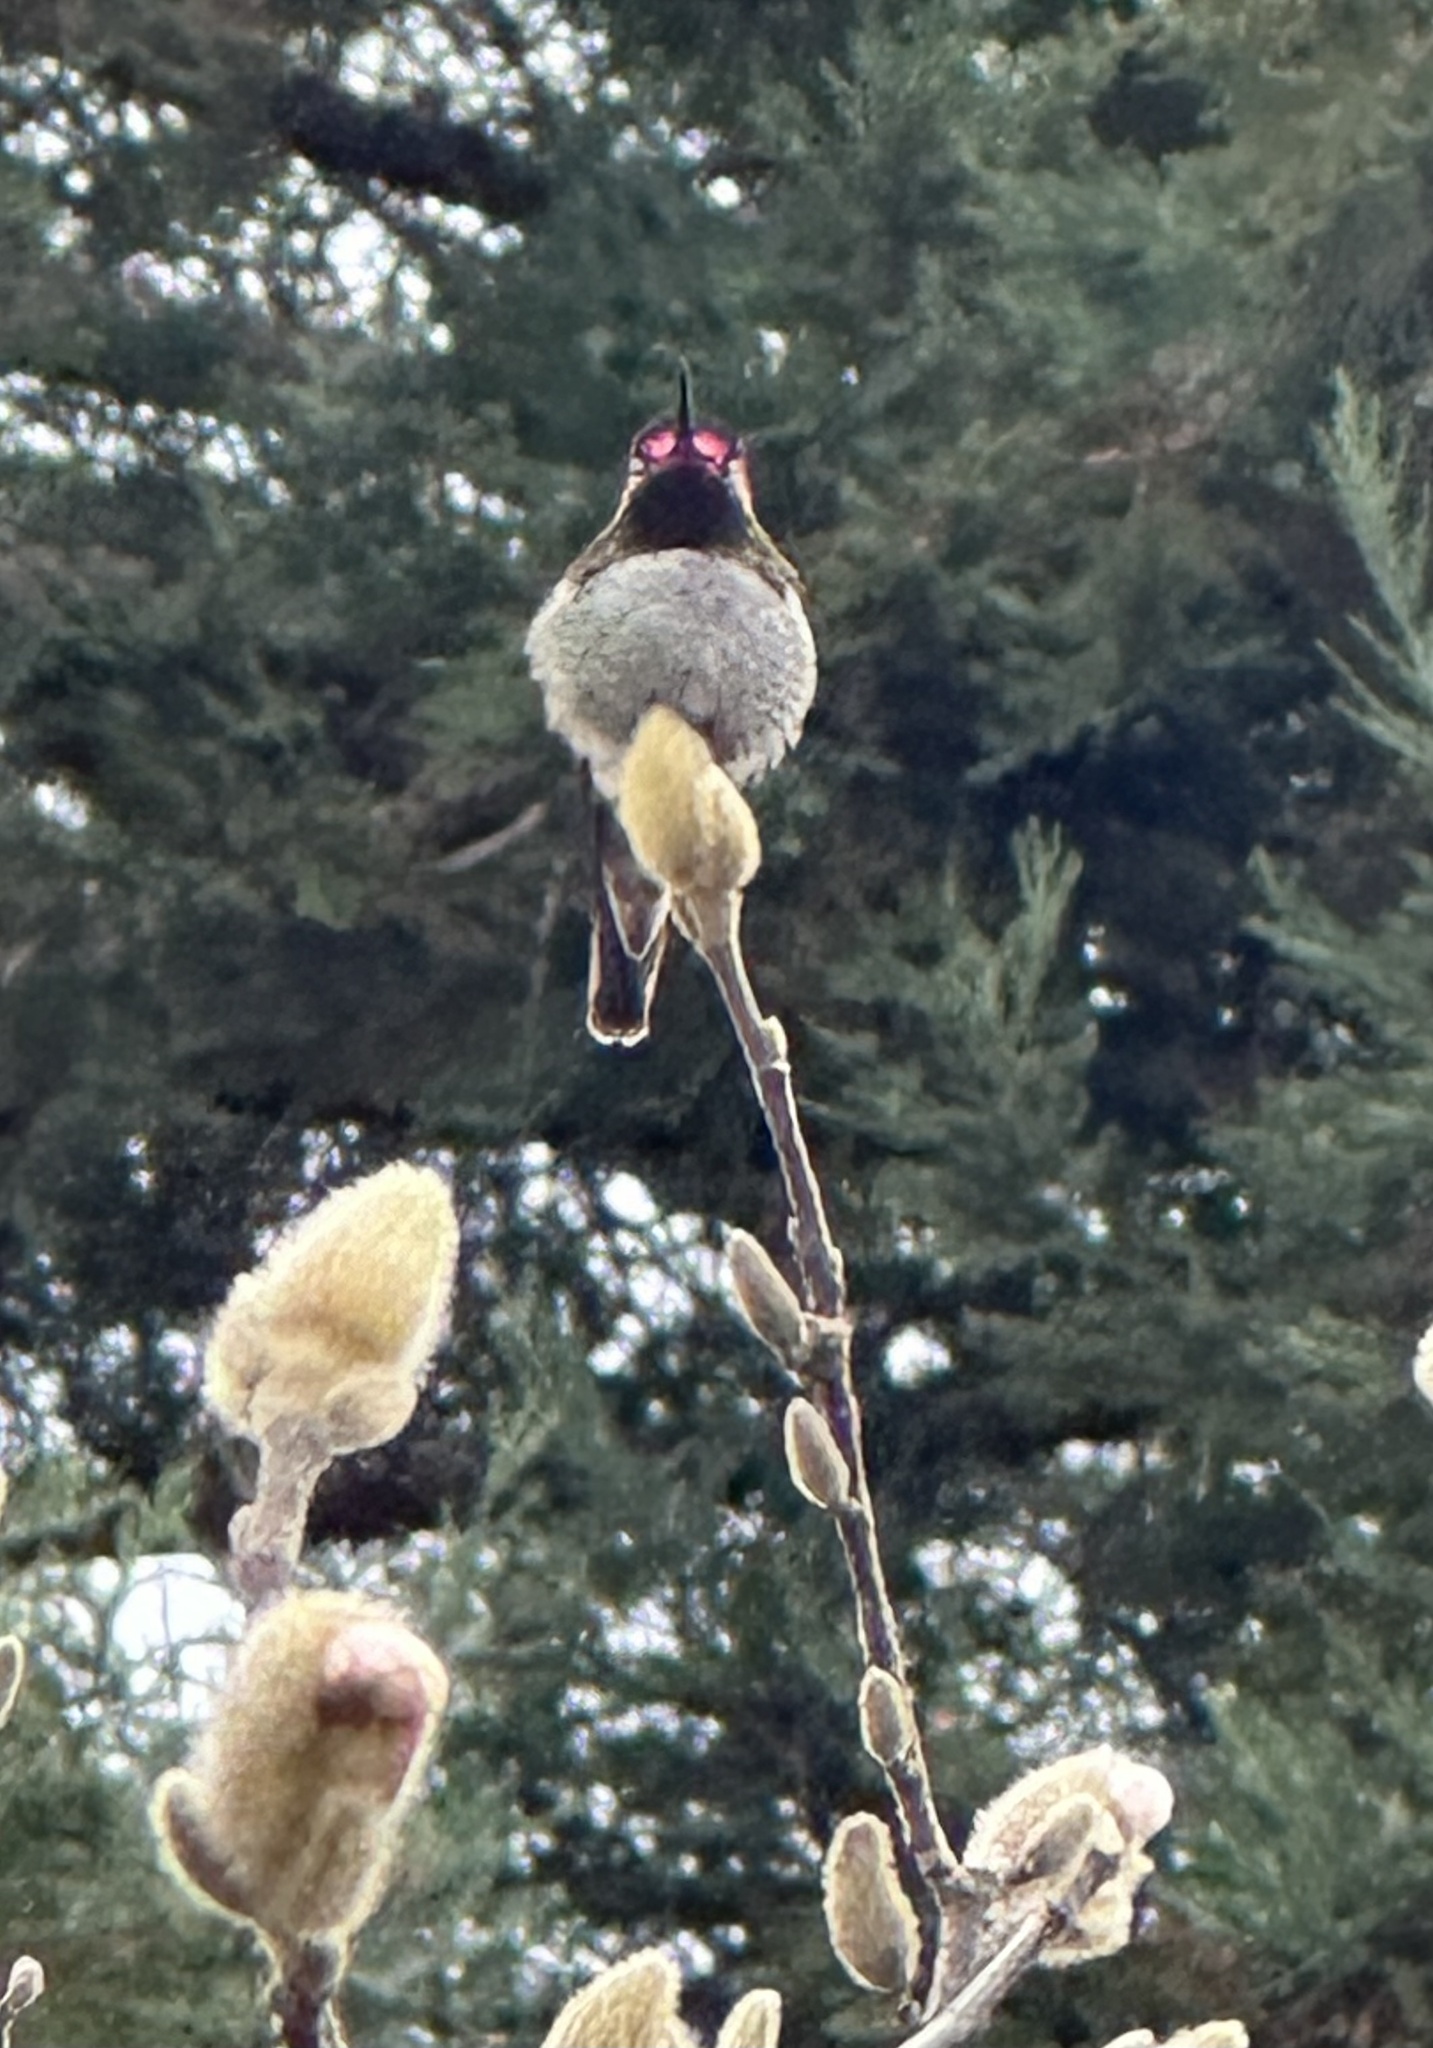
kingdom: Animalia
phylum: Chordata
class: Aves
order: Apodiformes
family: Trochilidae
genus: Calypte
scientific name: Calypte anna
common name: Anna's hummingbird
